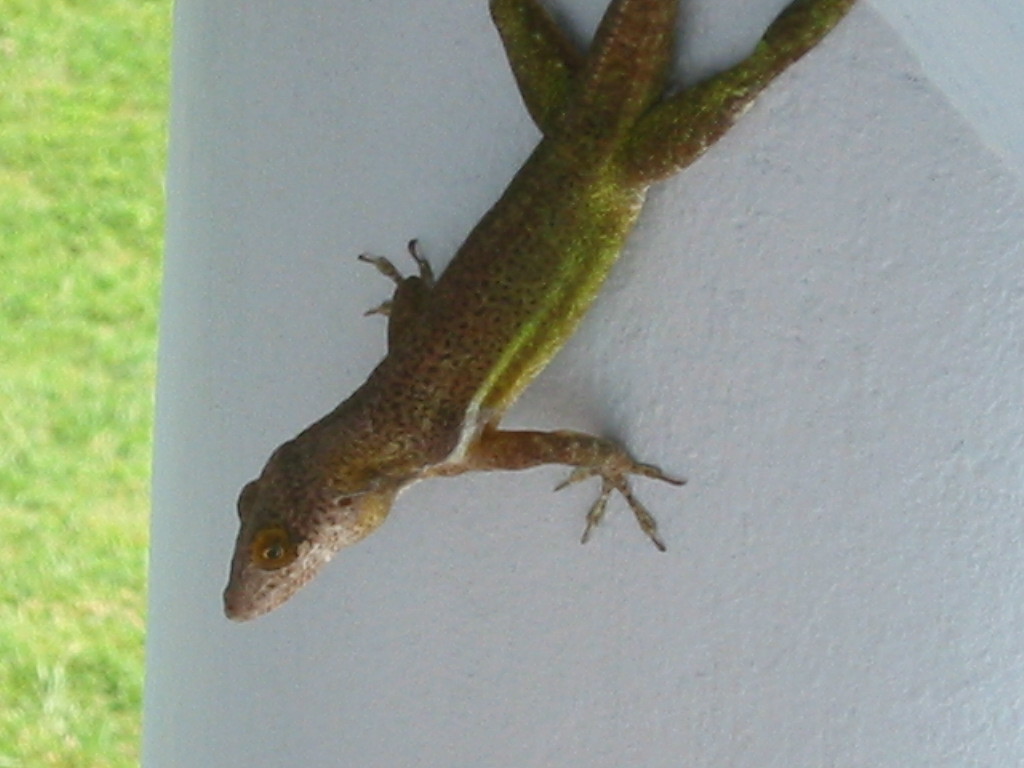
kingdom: Animalia
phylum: Chordata
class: Squamata
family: Dactyloidae
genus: Anolis
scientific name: Anolis leachii
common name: Barbuda bank tree anole
